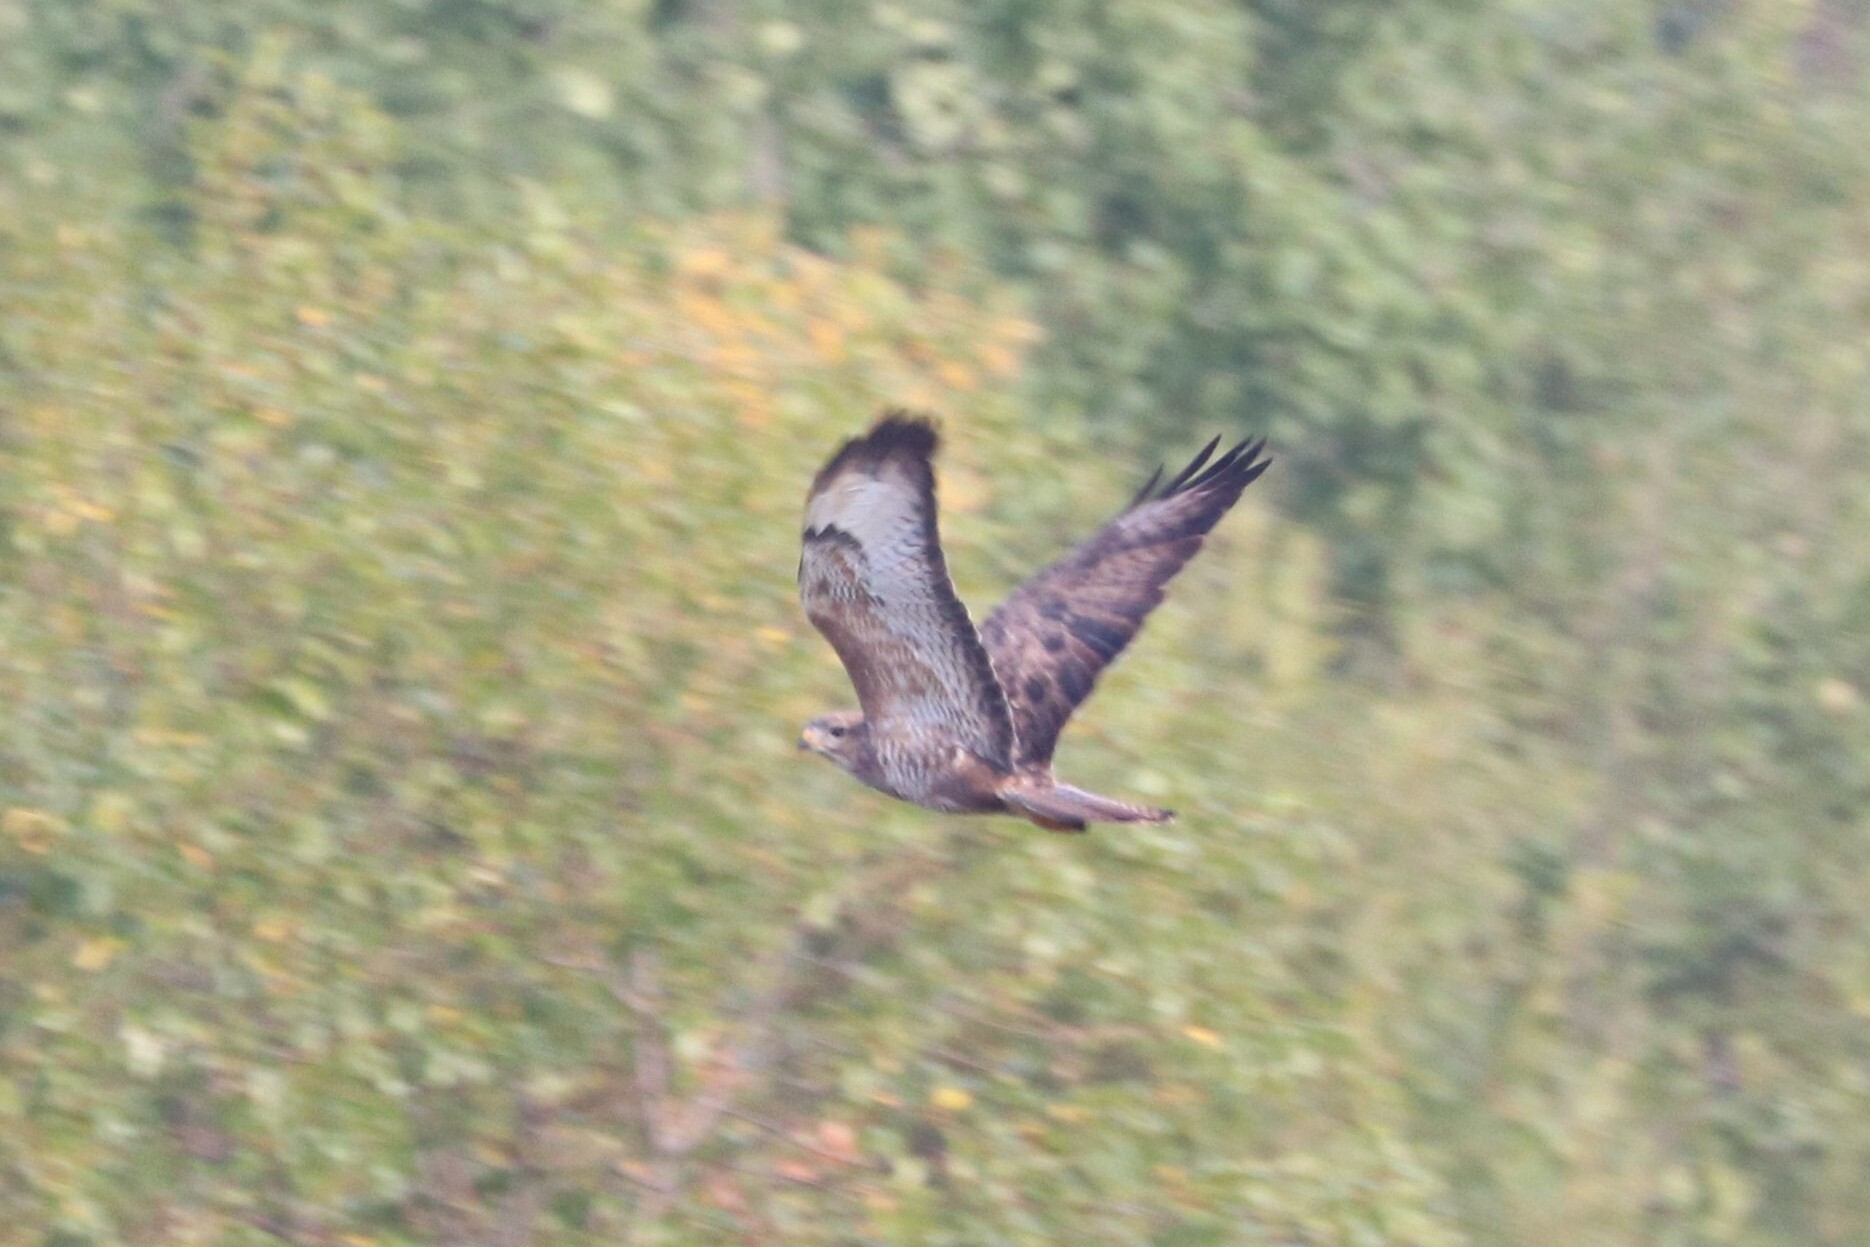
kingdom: Animalia
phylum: Chordata
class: Aves
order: Accipitriformes
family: Accipitridae
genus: Buteo
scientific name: Buteo buteo
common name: Common buzzard
